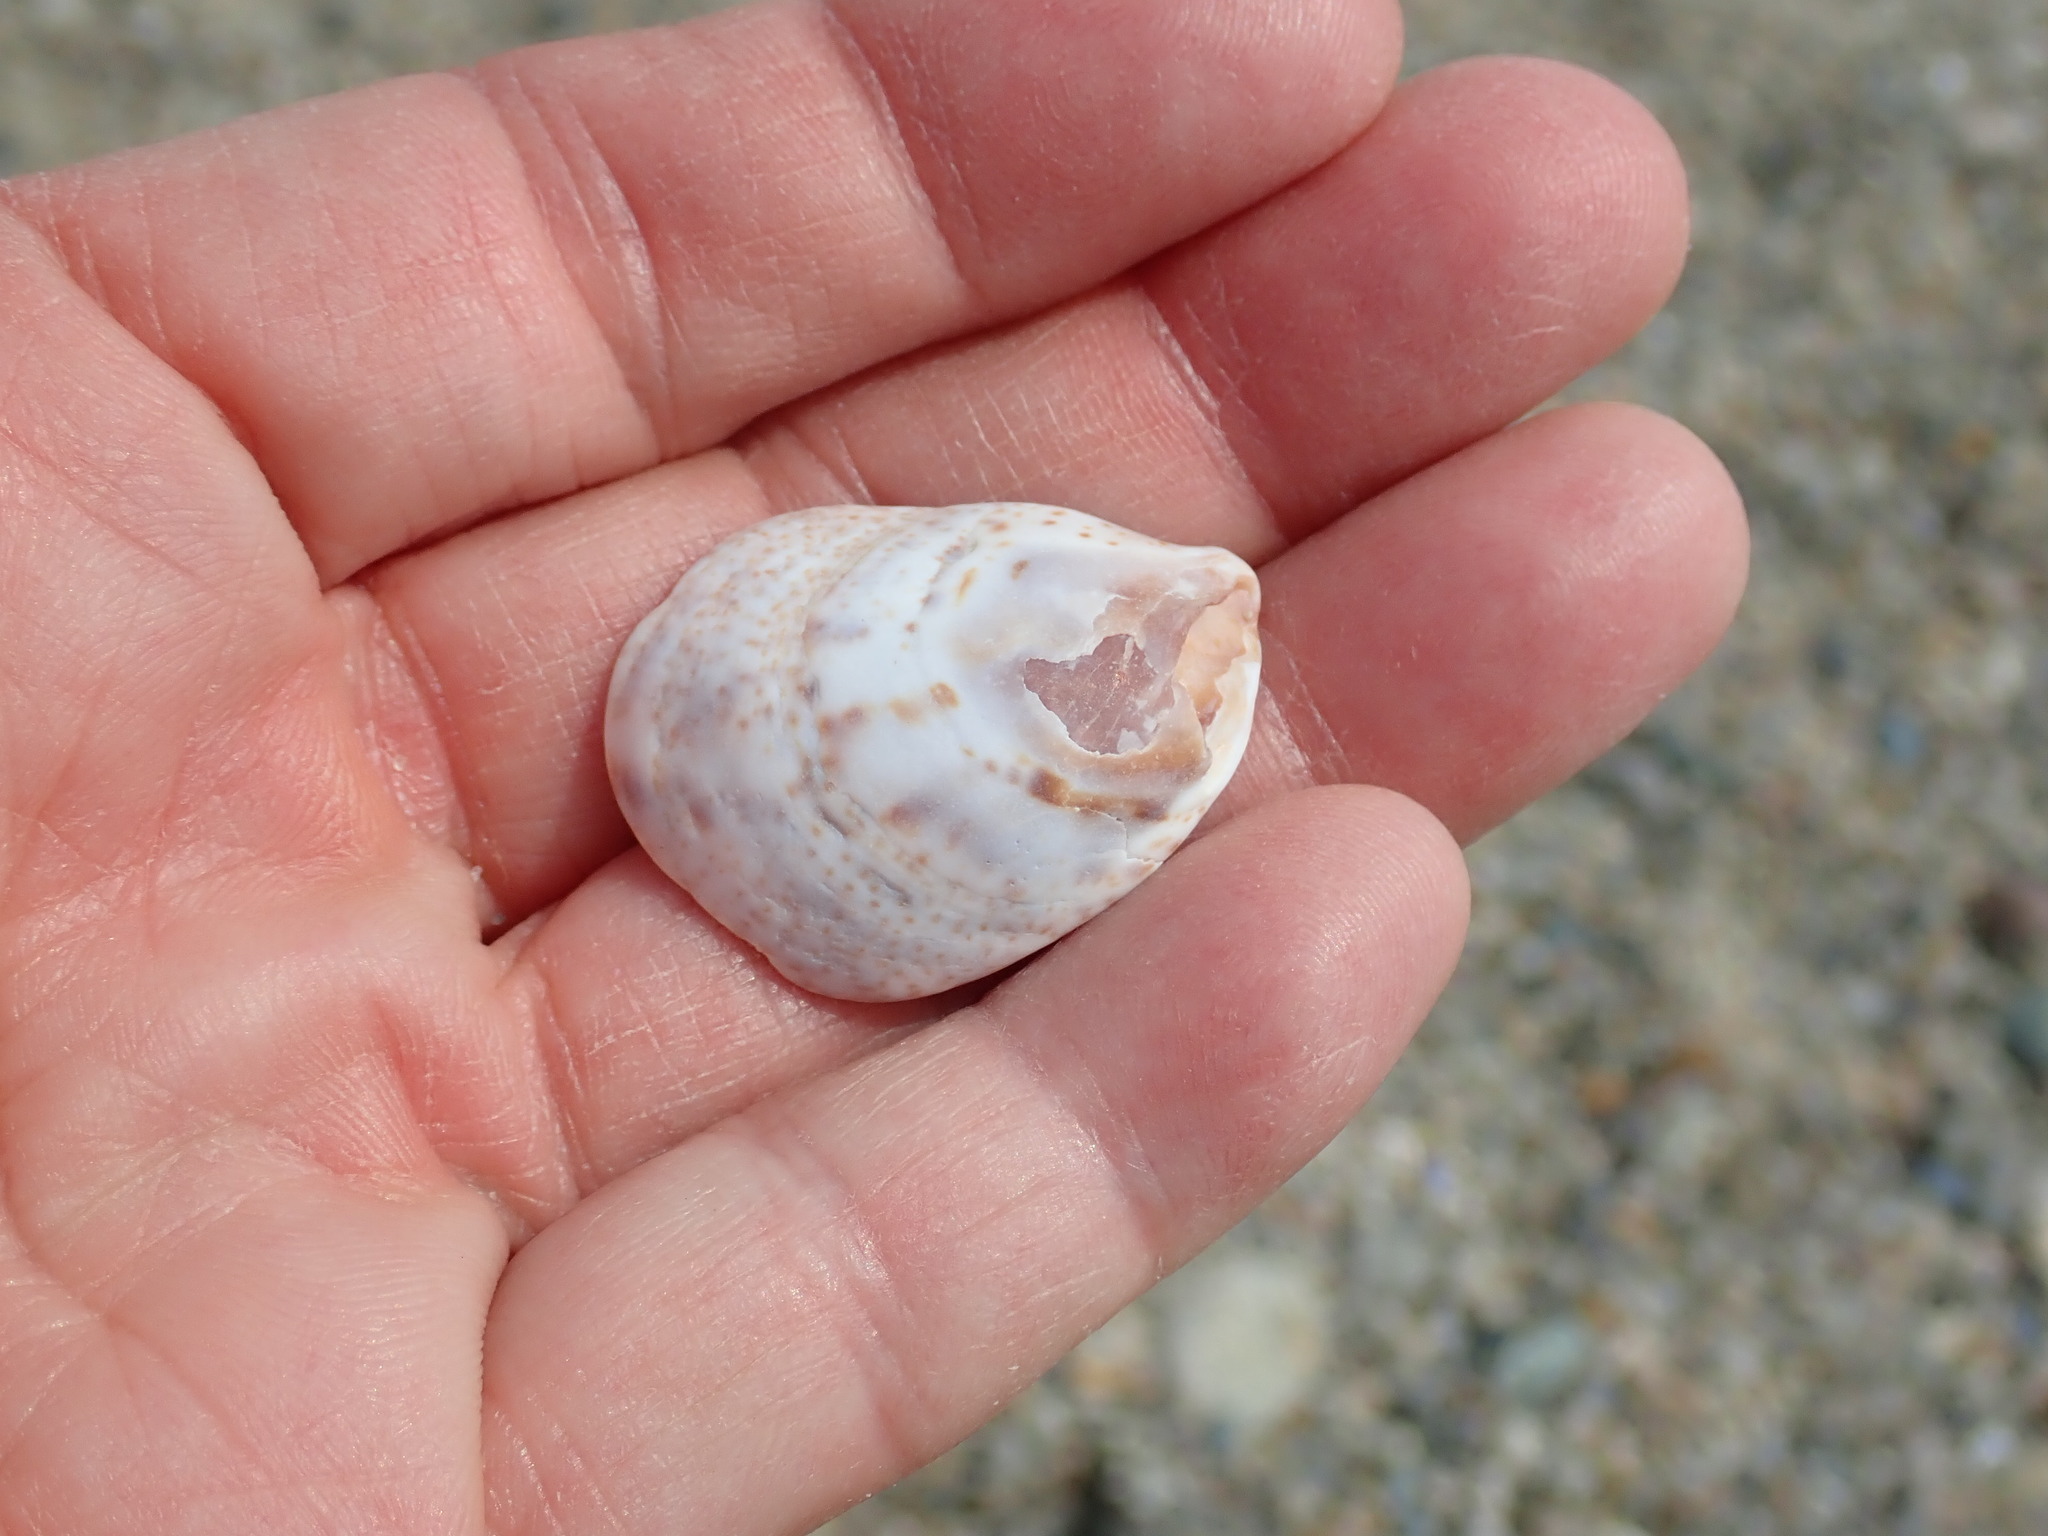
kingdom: Animalia
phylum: Mollusca
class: Gastropoda
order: Littorinimorpha
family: Calyptraeidae
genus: Crepidula
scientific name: Crepidula fornicata
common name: Slipper limpet
